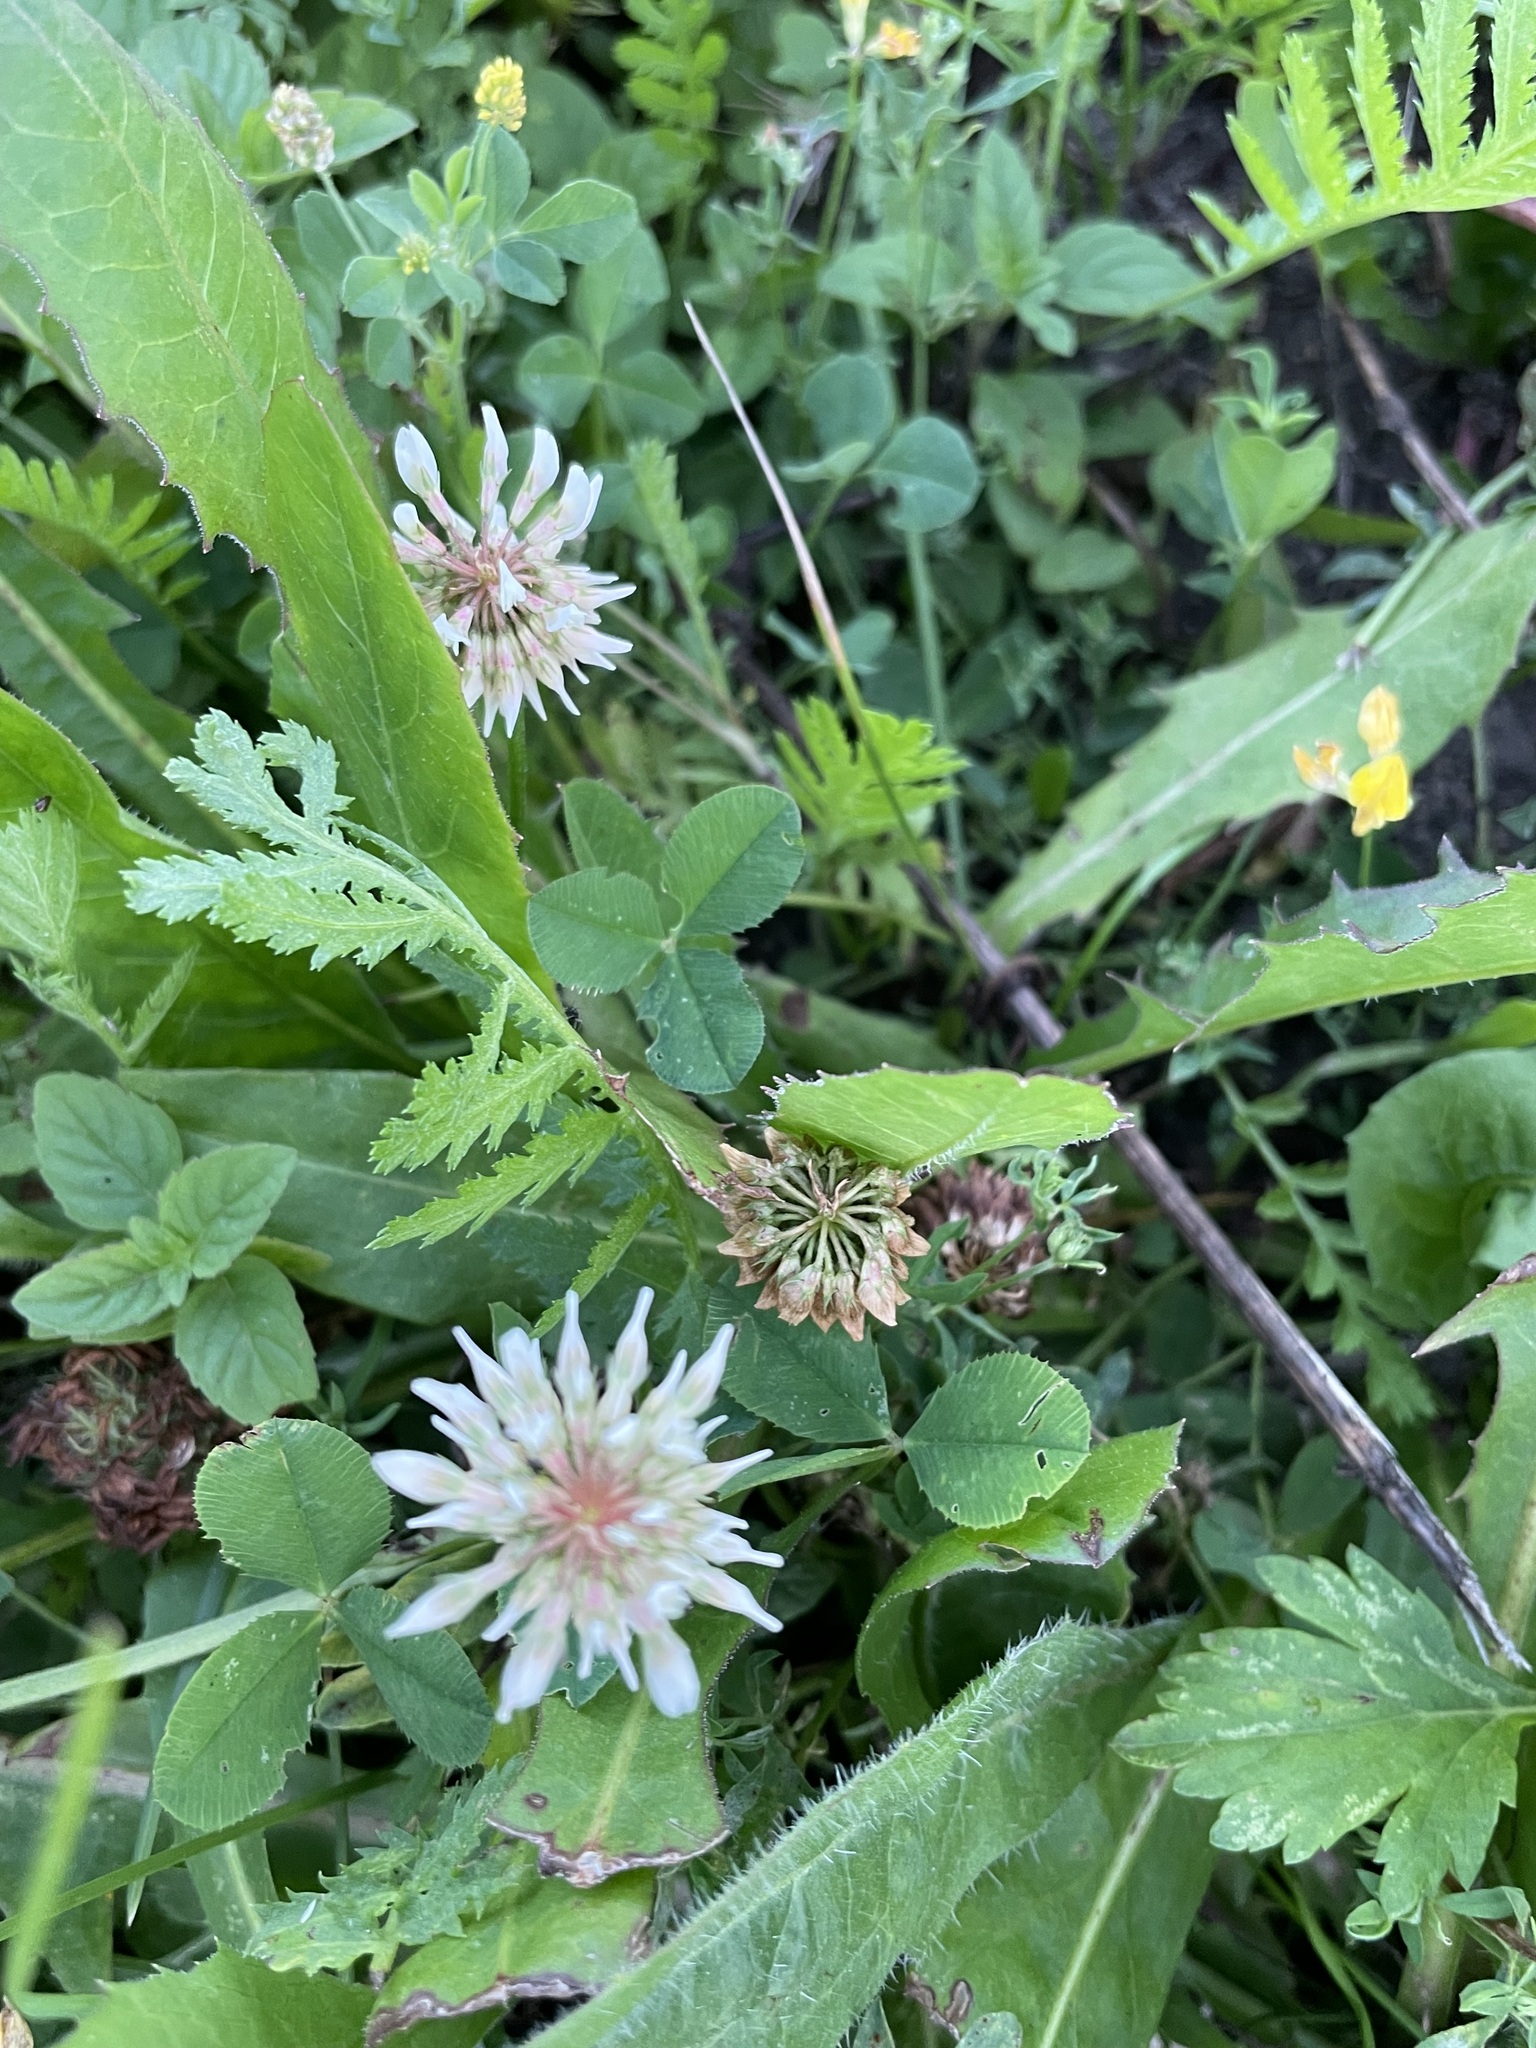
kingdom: Plantae
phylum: Tracheophyta
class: Magnoliopsida
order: Fabales
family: Fabaceae
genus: Trifolium
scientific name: Trifolium repens
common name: White clover
